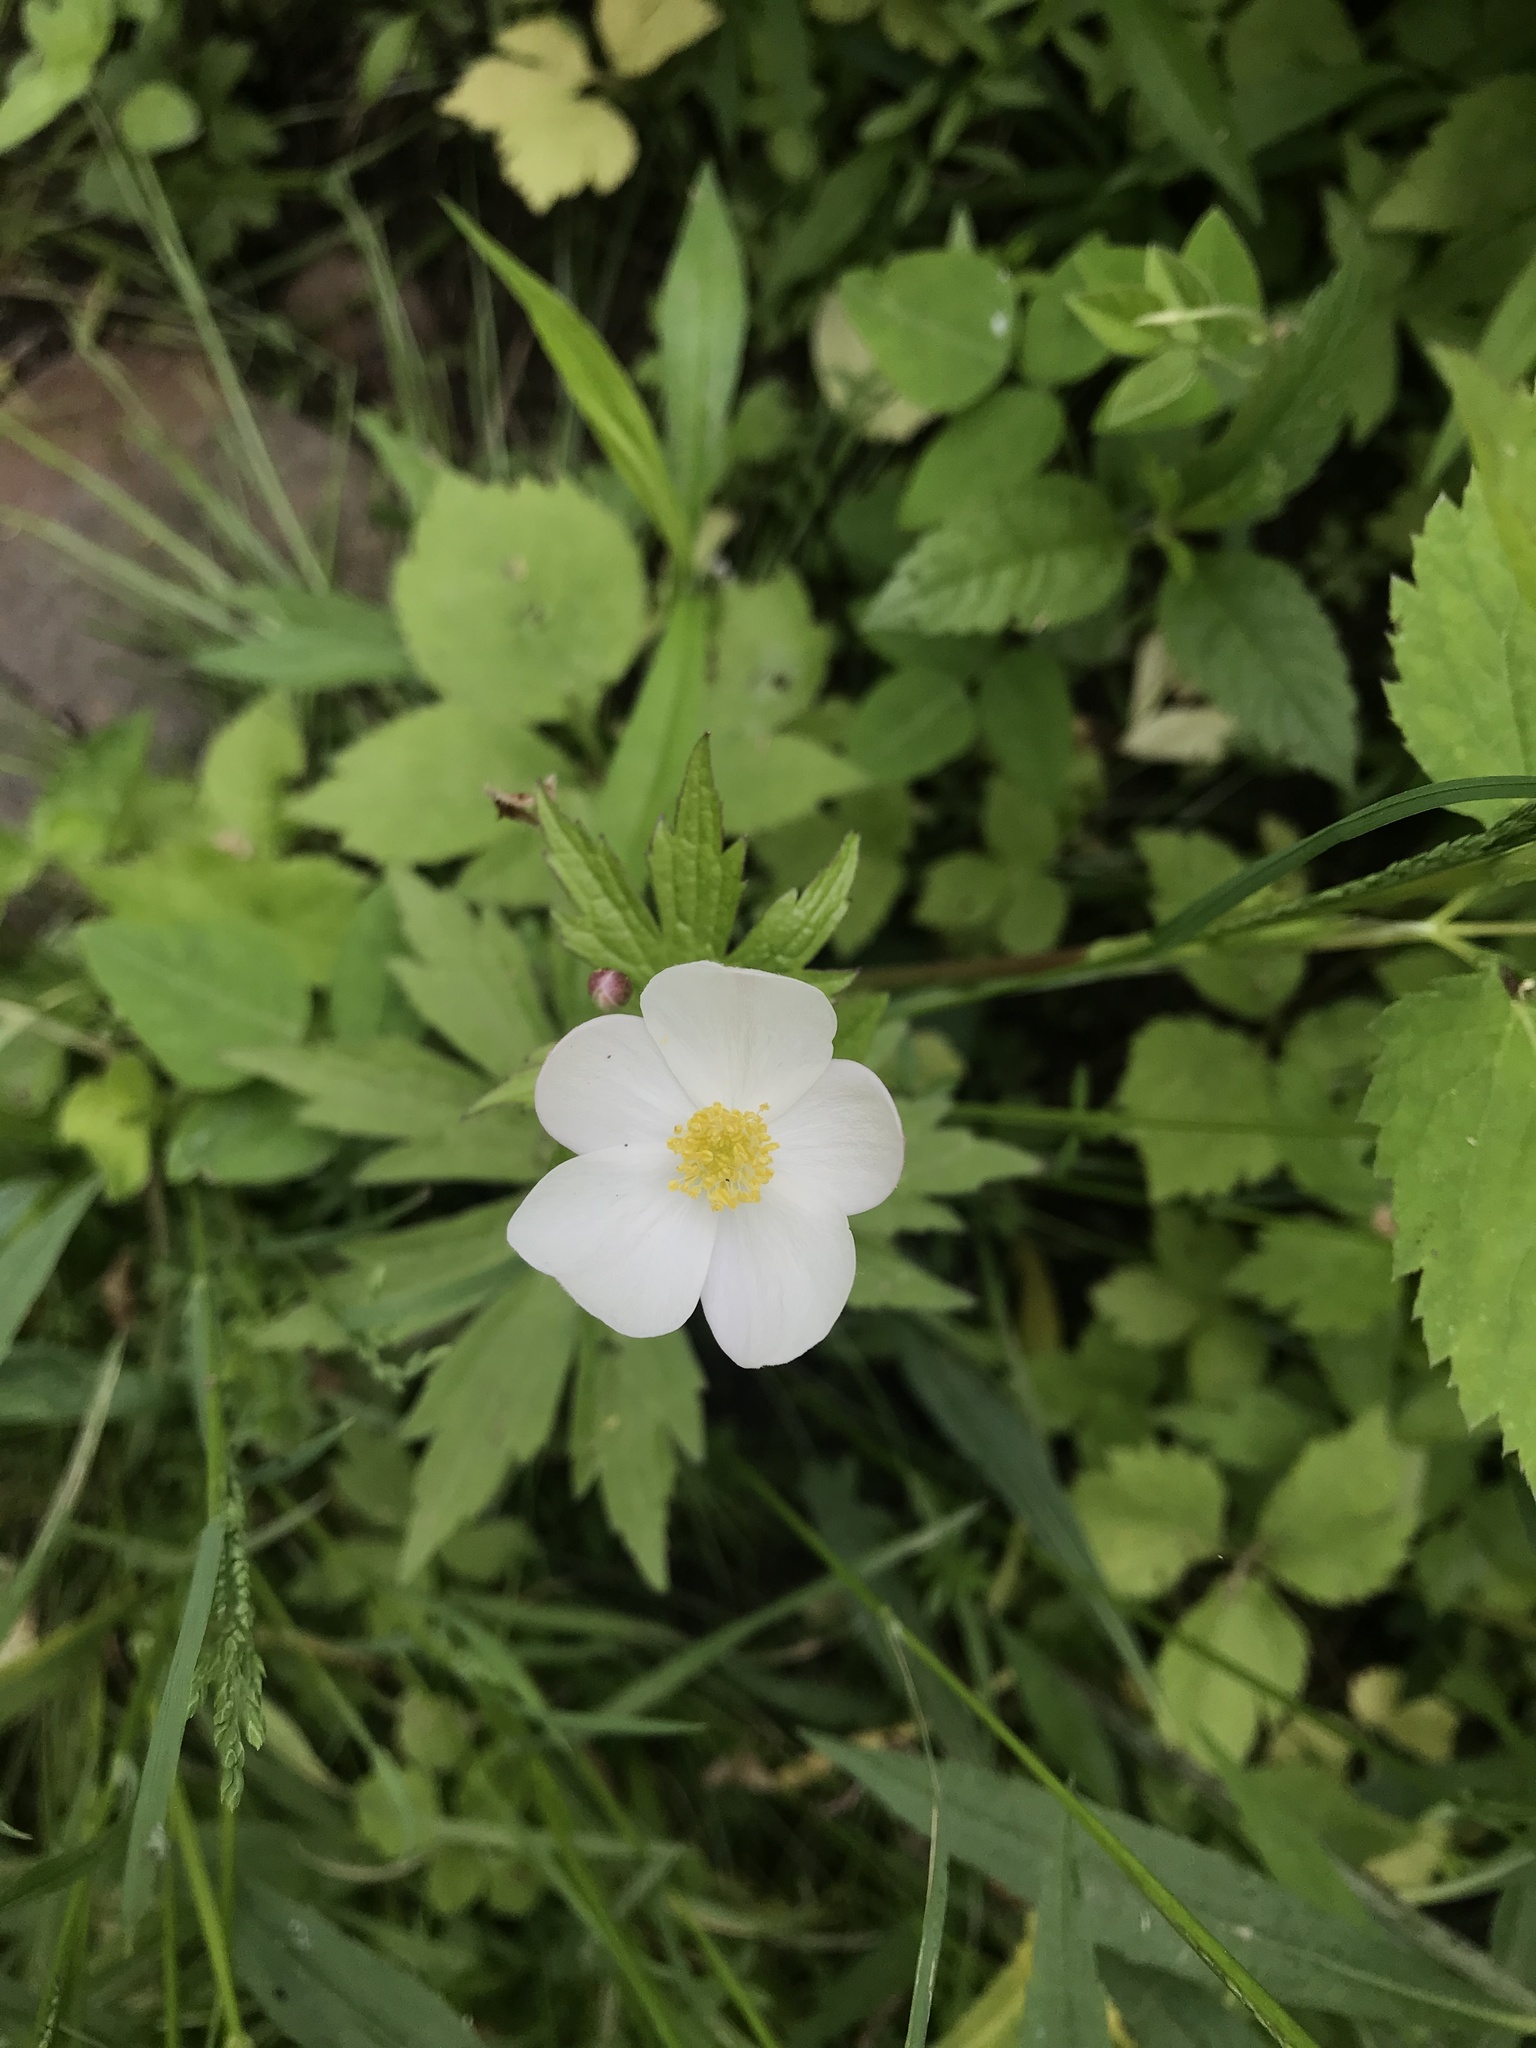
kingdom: Plantae
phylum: Tracheophyta
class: Magnoliopsida
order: Ranunculales
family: Ranunculaceae
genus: Anemonastrum
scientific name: Anemonastrum canadense
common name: Canada anemone
